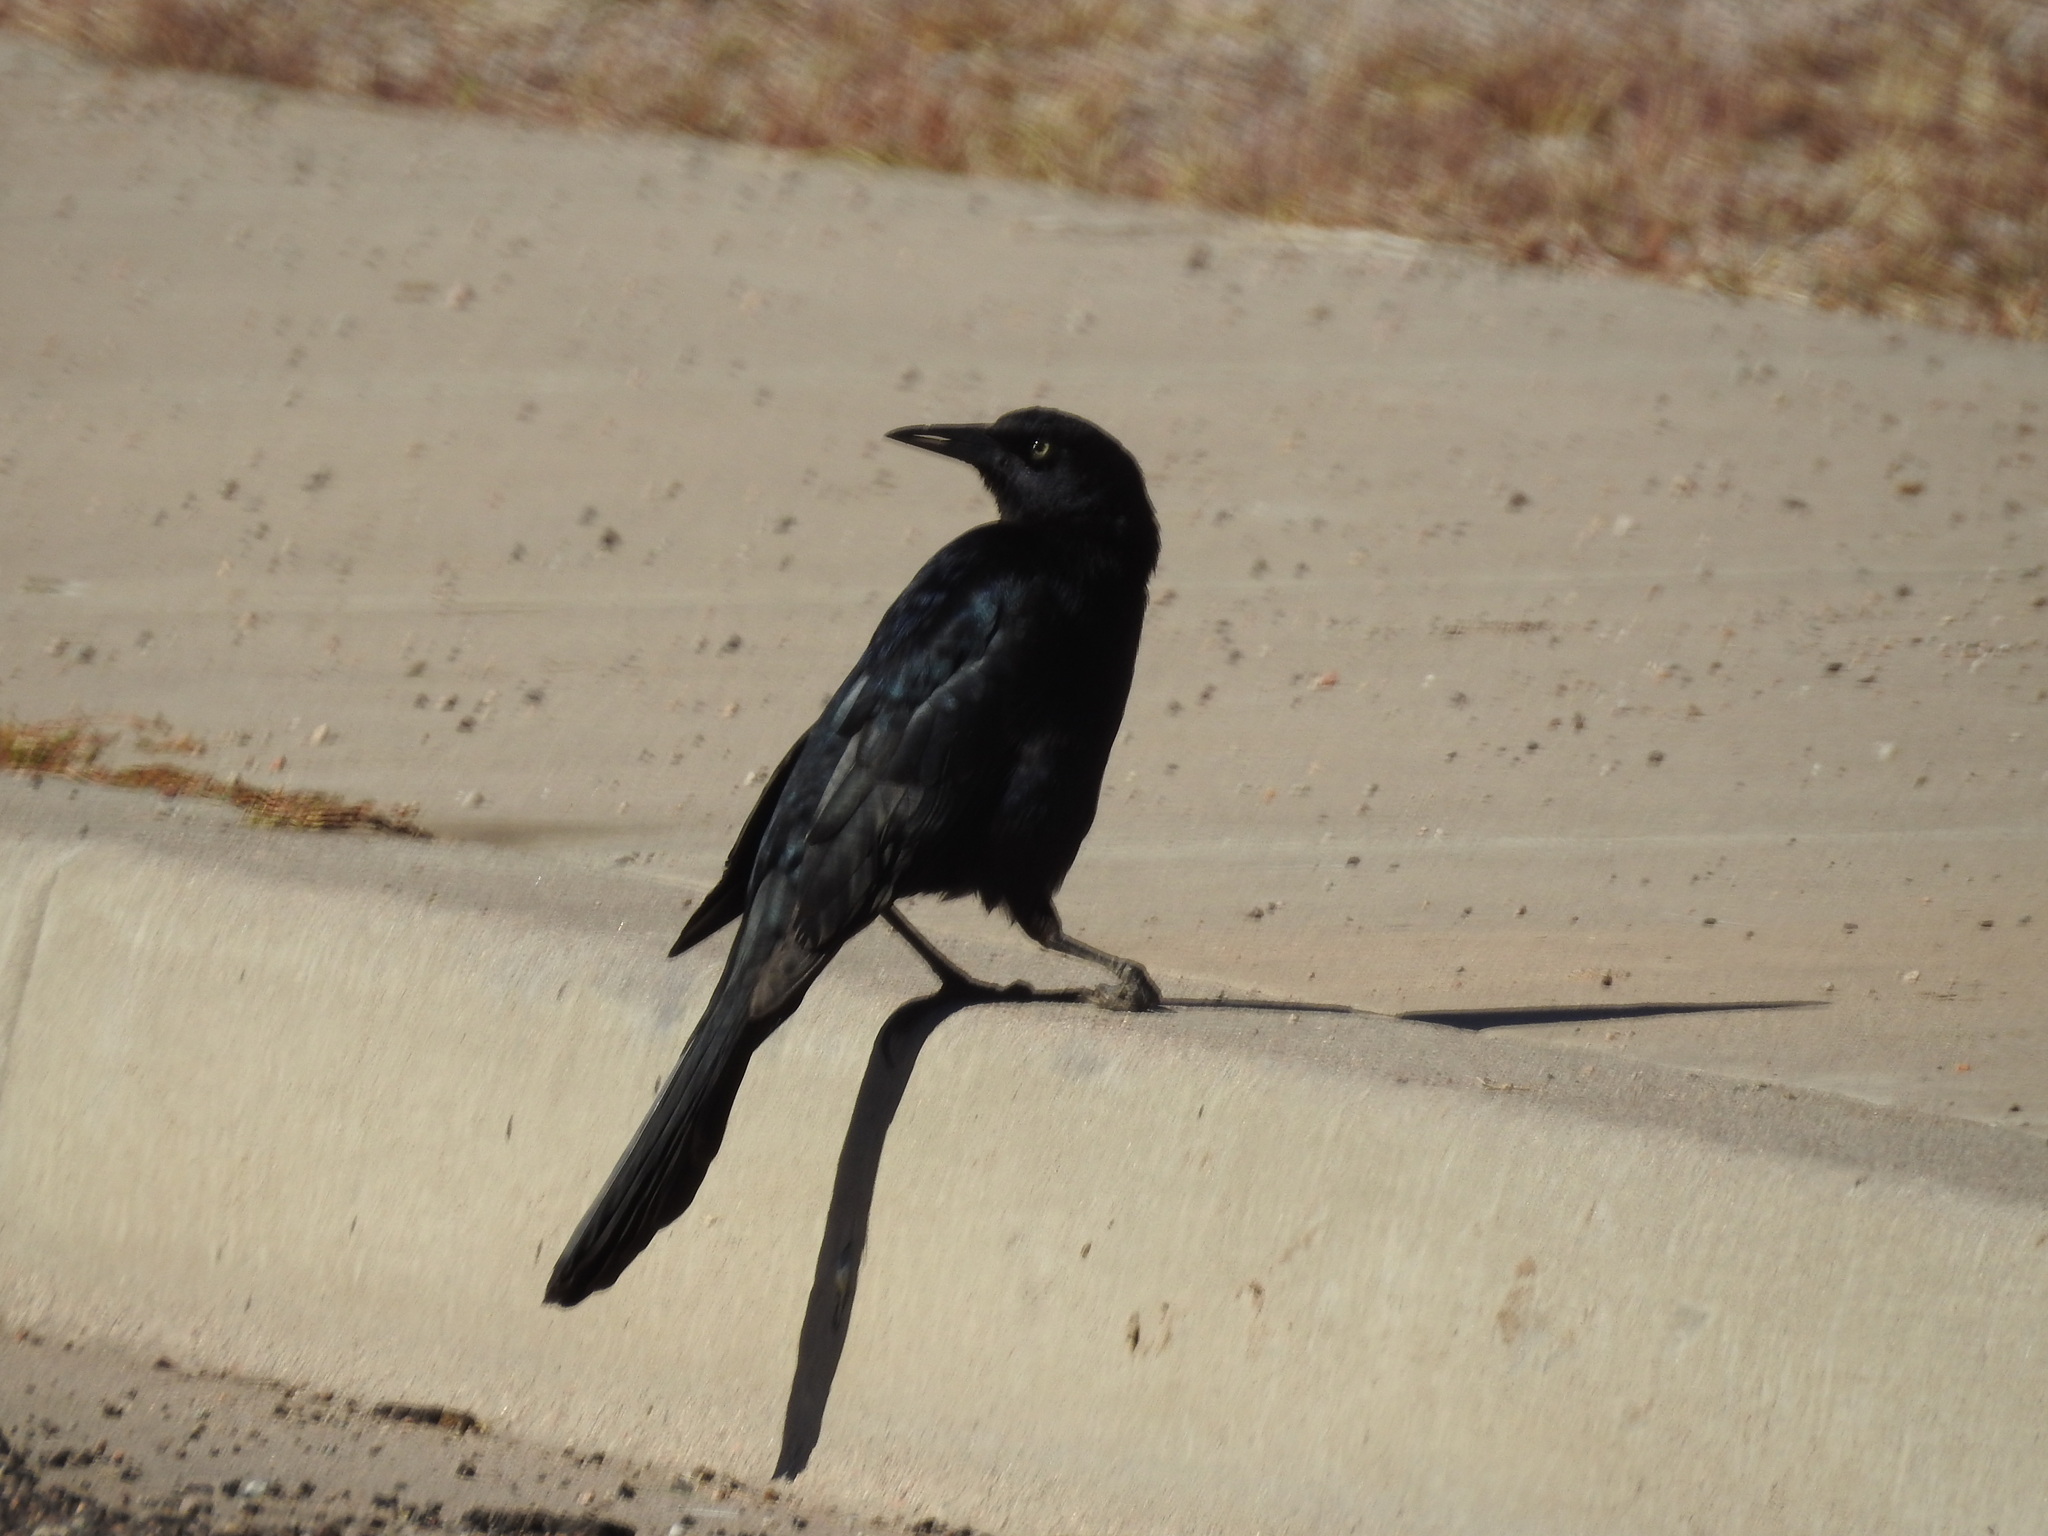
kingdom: Animalia
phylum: Chordata
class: Aves
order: Passeriformes
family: Icteridae
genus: Quiscalus
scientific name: Quiscalus mexicanus
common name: Great-tailed grackle
